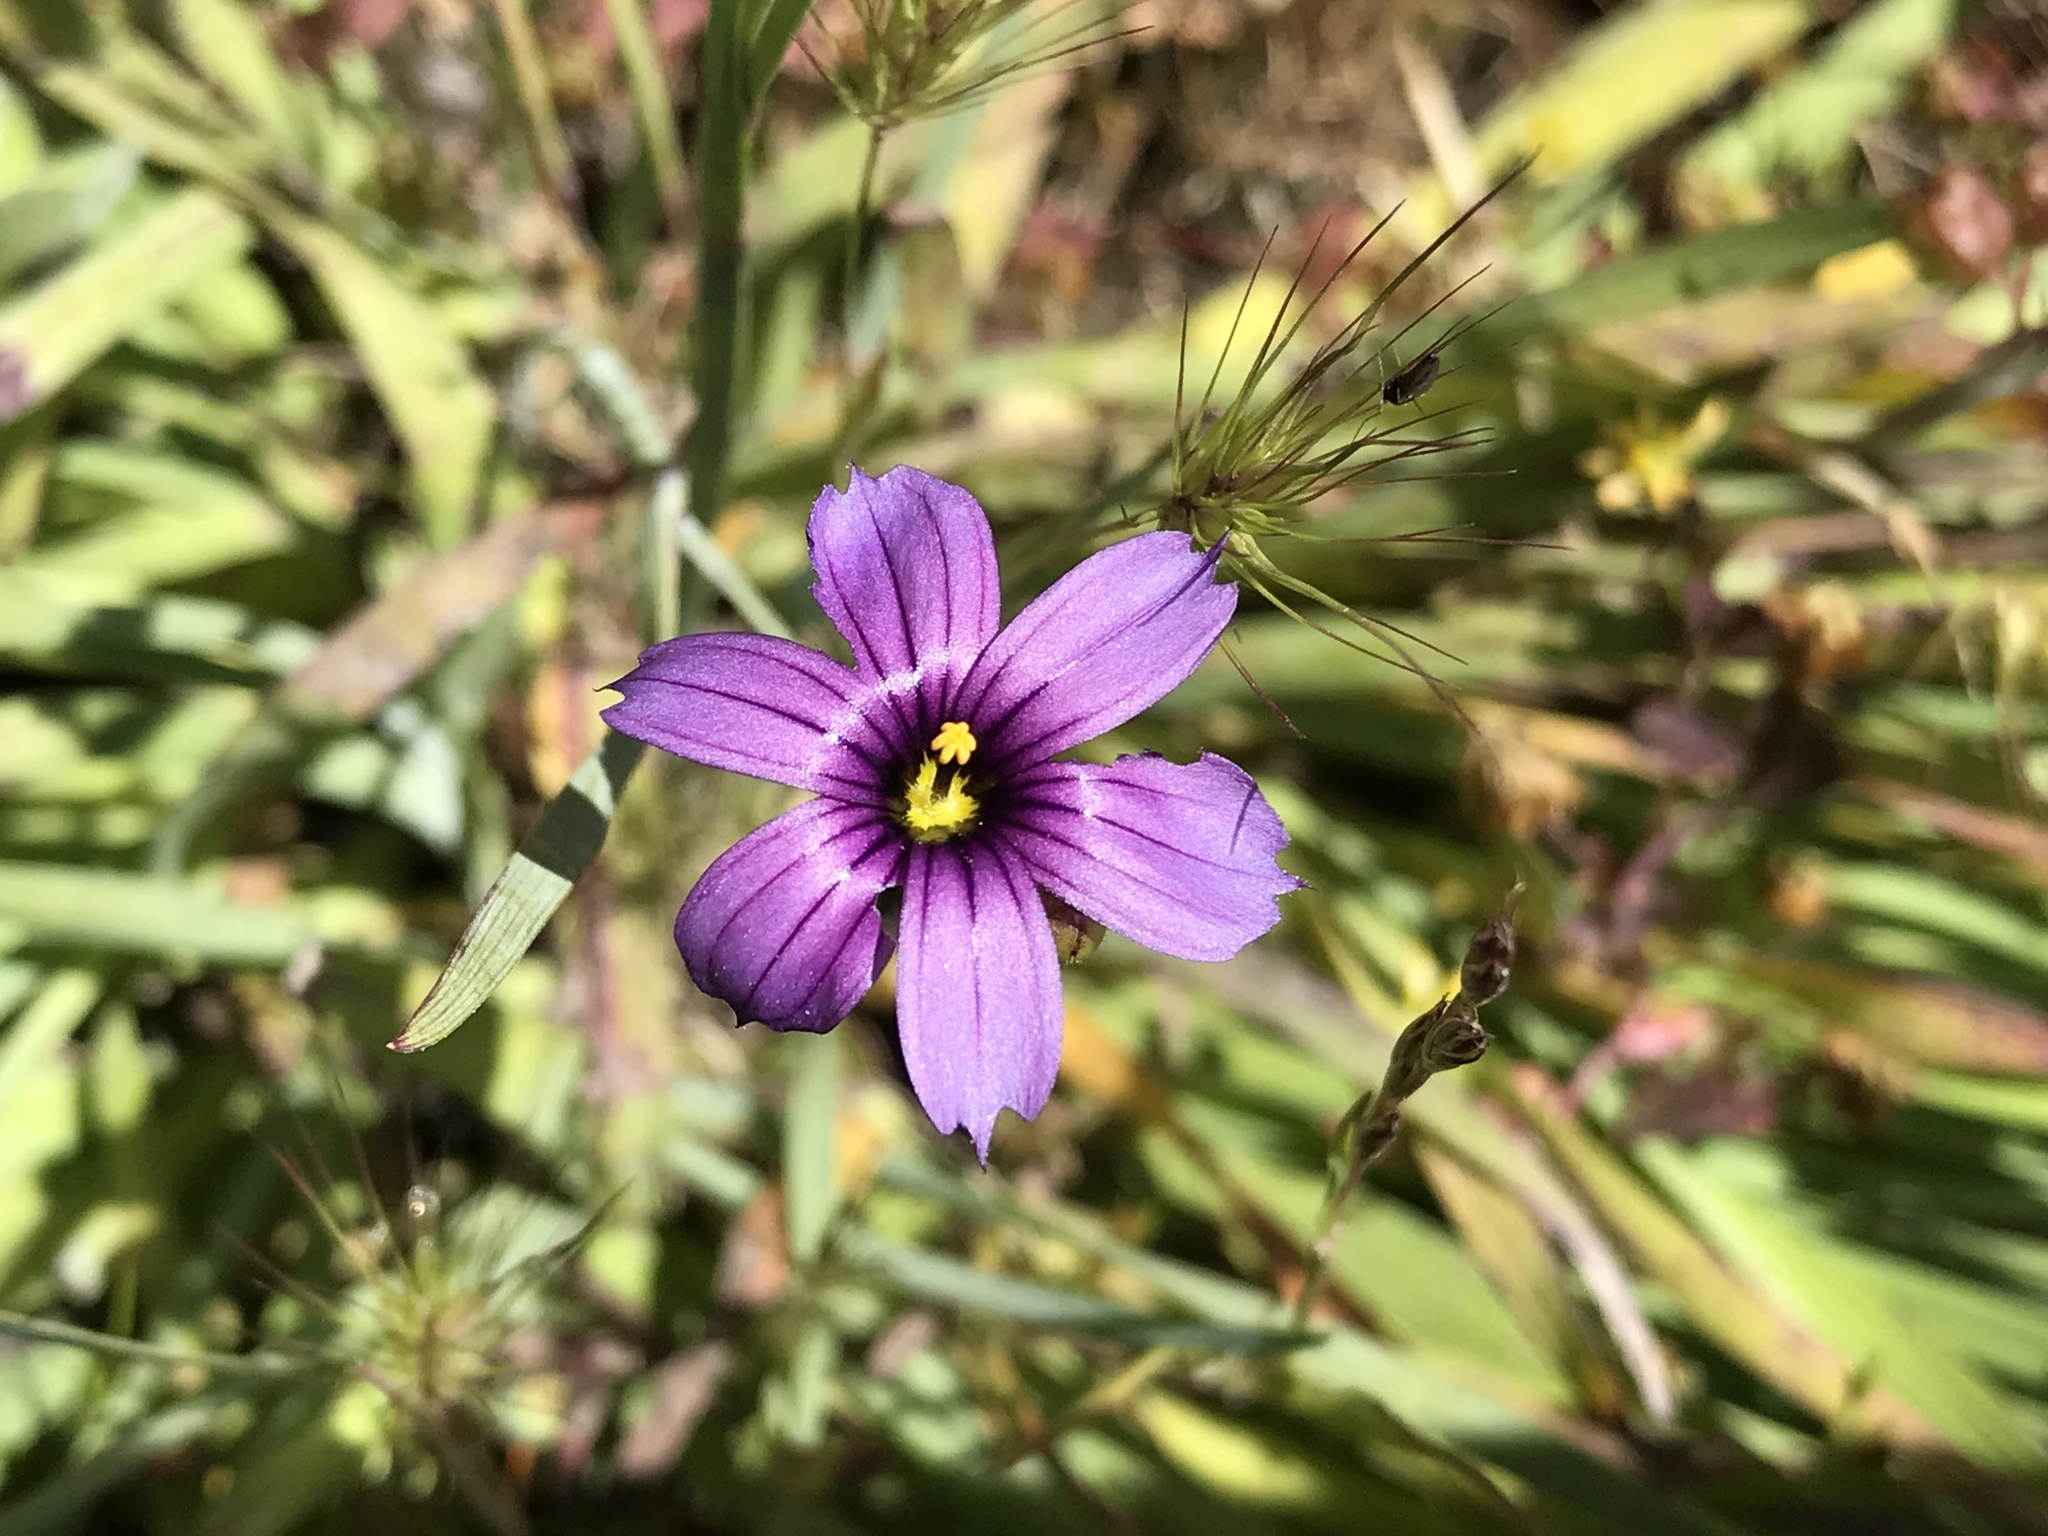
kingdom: Plantae
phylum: Tracheophyta
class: Liliopsida
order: Asparagales
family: Iridaceae
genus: Sisyrinchium
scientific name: Sisyrinchium bellum
